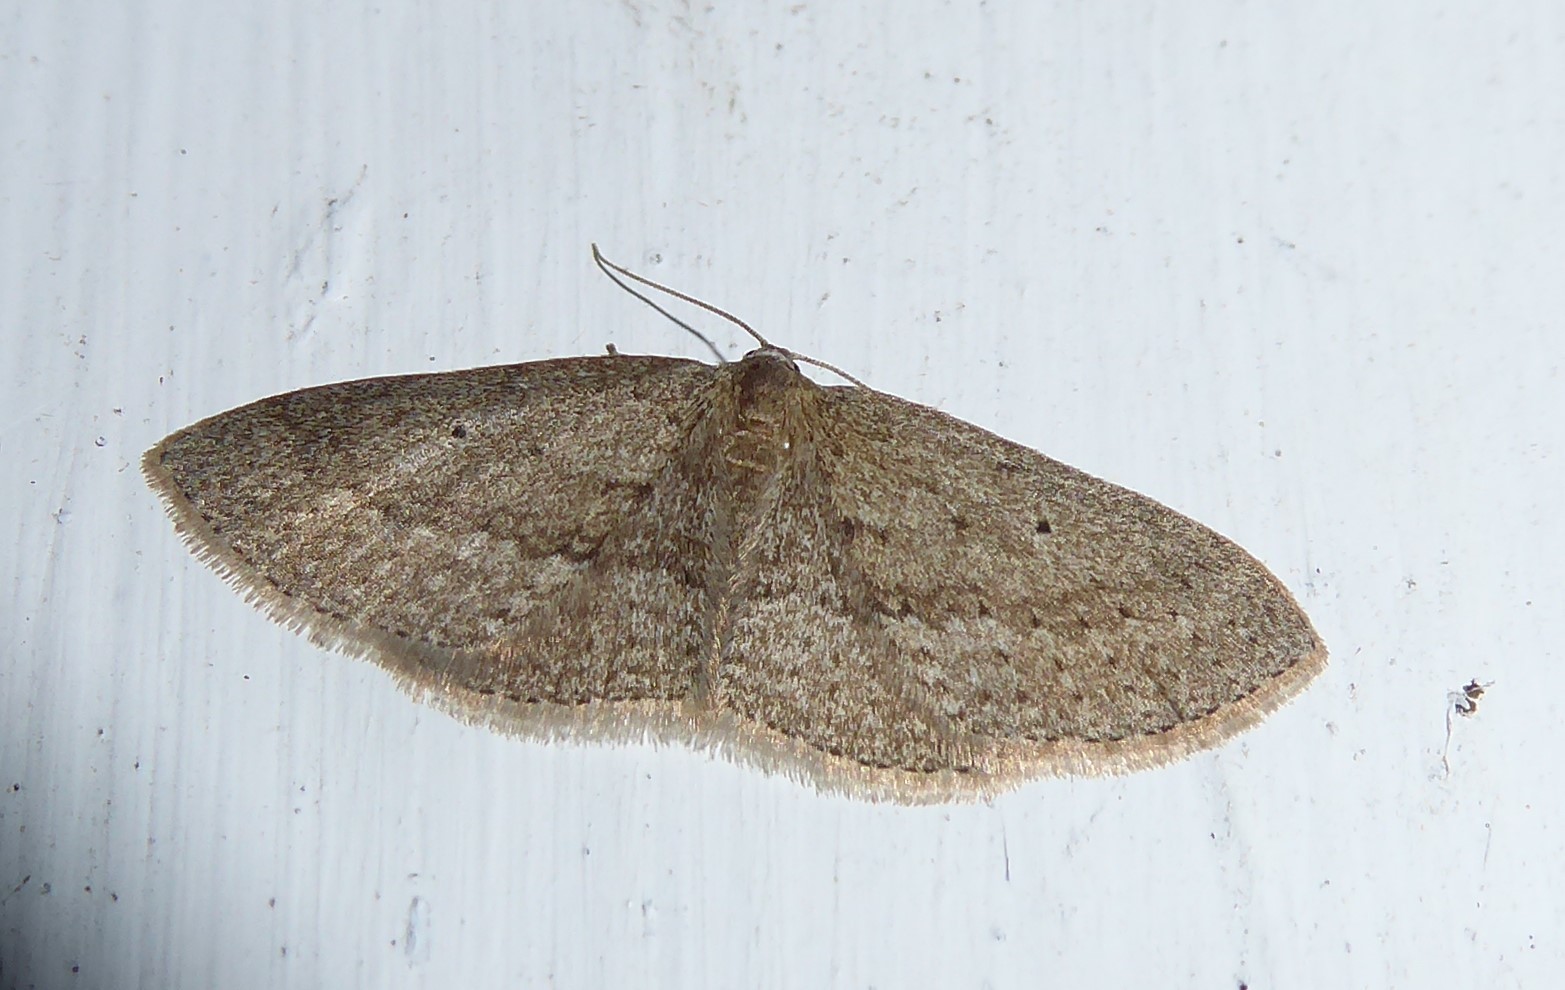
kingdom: Animalia
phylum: Arthropoda
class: Insecta
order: Lepidoptera
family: Geometridae
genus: Poecilasthena
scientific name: Poecilasthena schistaria
